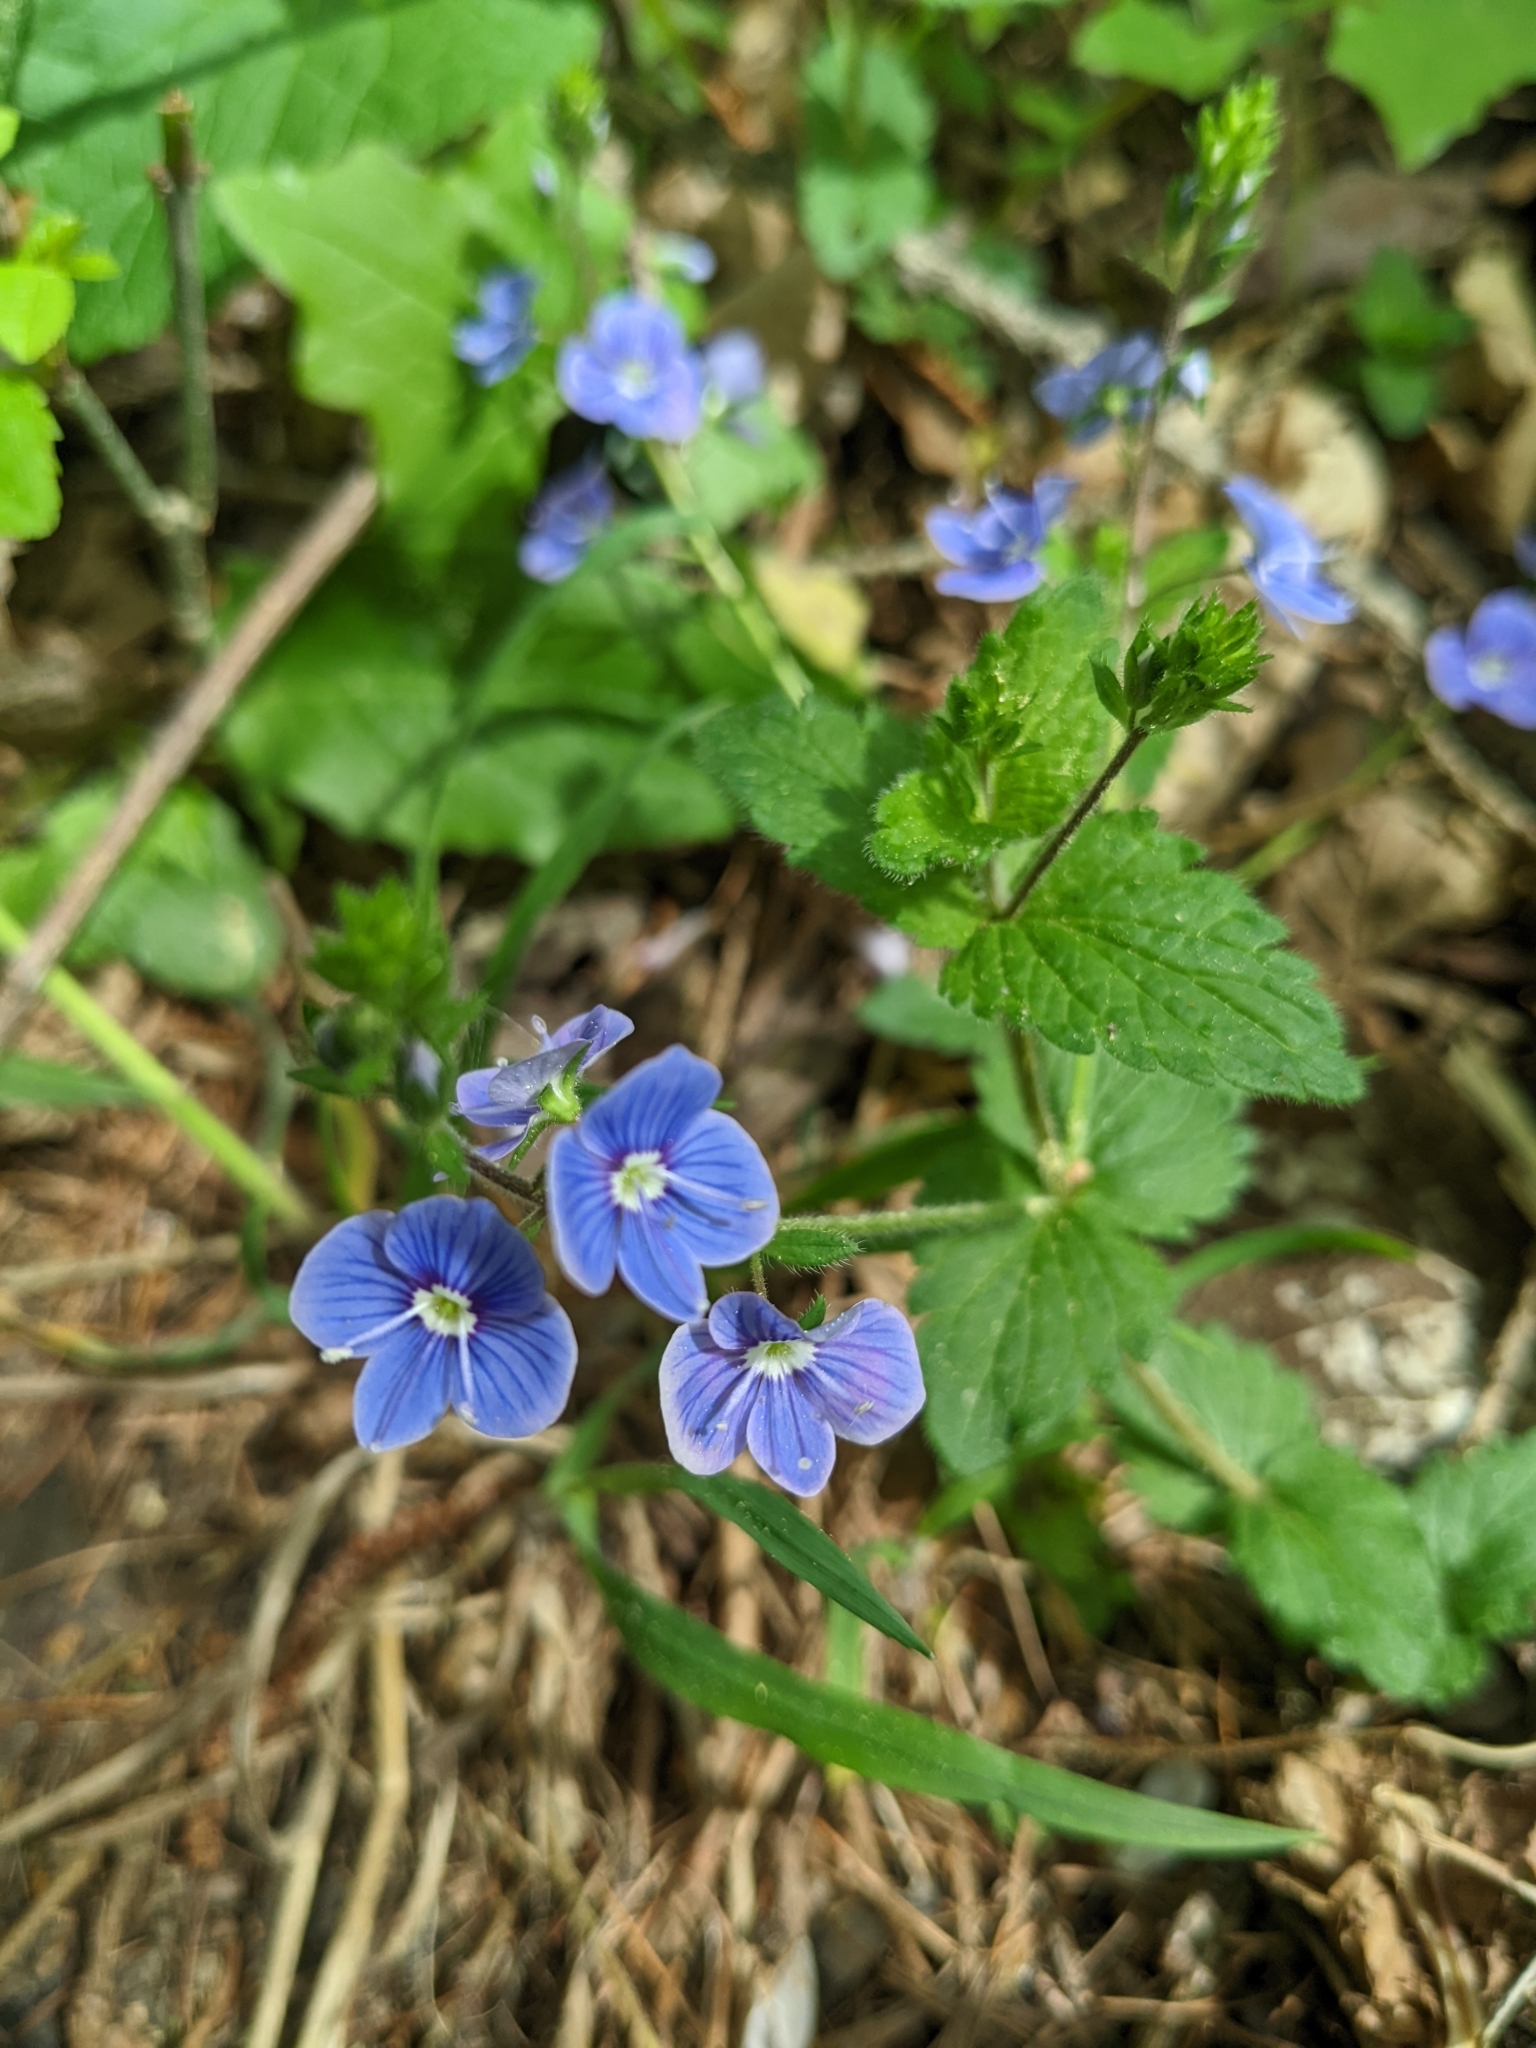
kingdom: Plantae
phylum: Tracheophyta
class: Magnoliopsida
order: Lamiales
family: Plantaginaceae
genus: Veronica
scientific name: Veronica chamaedrys
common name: Germander speedwell
